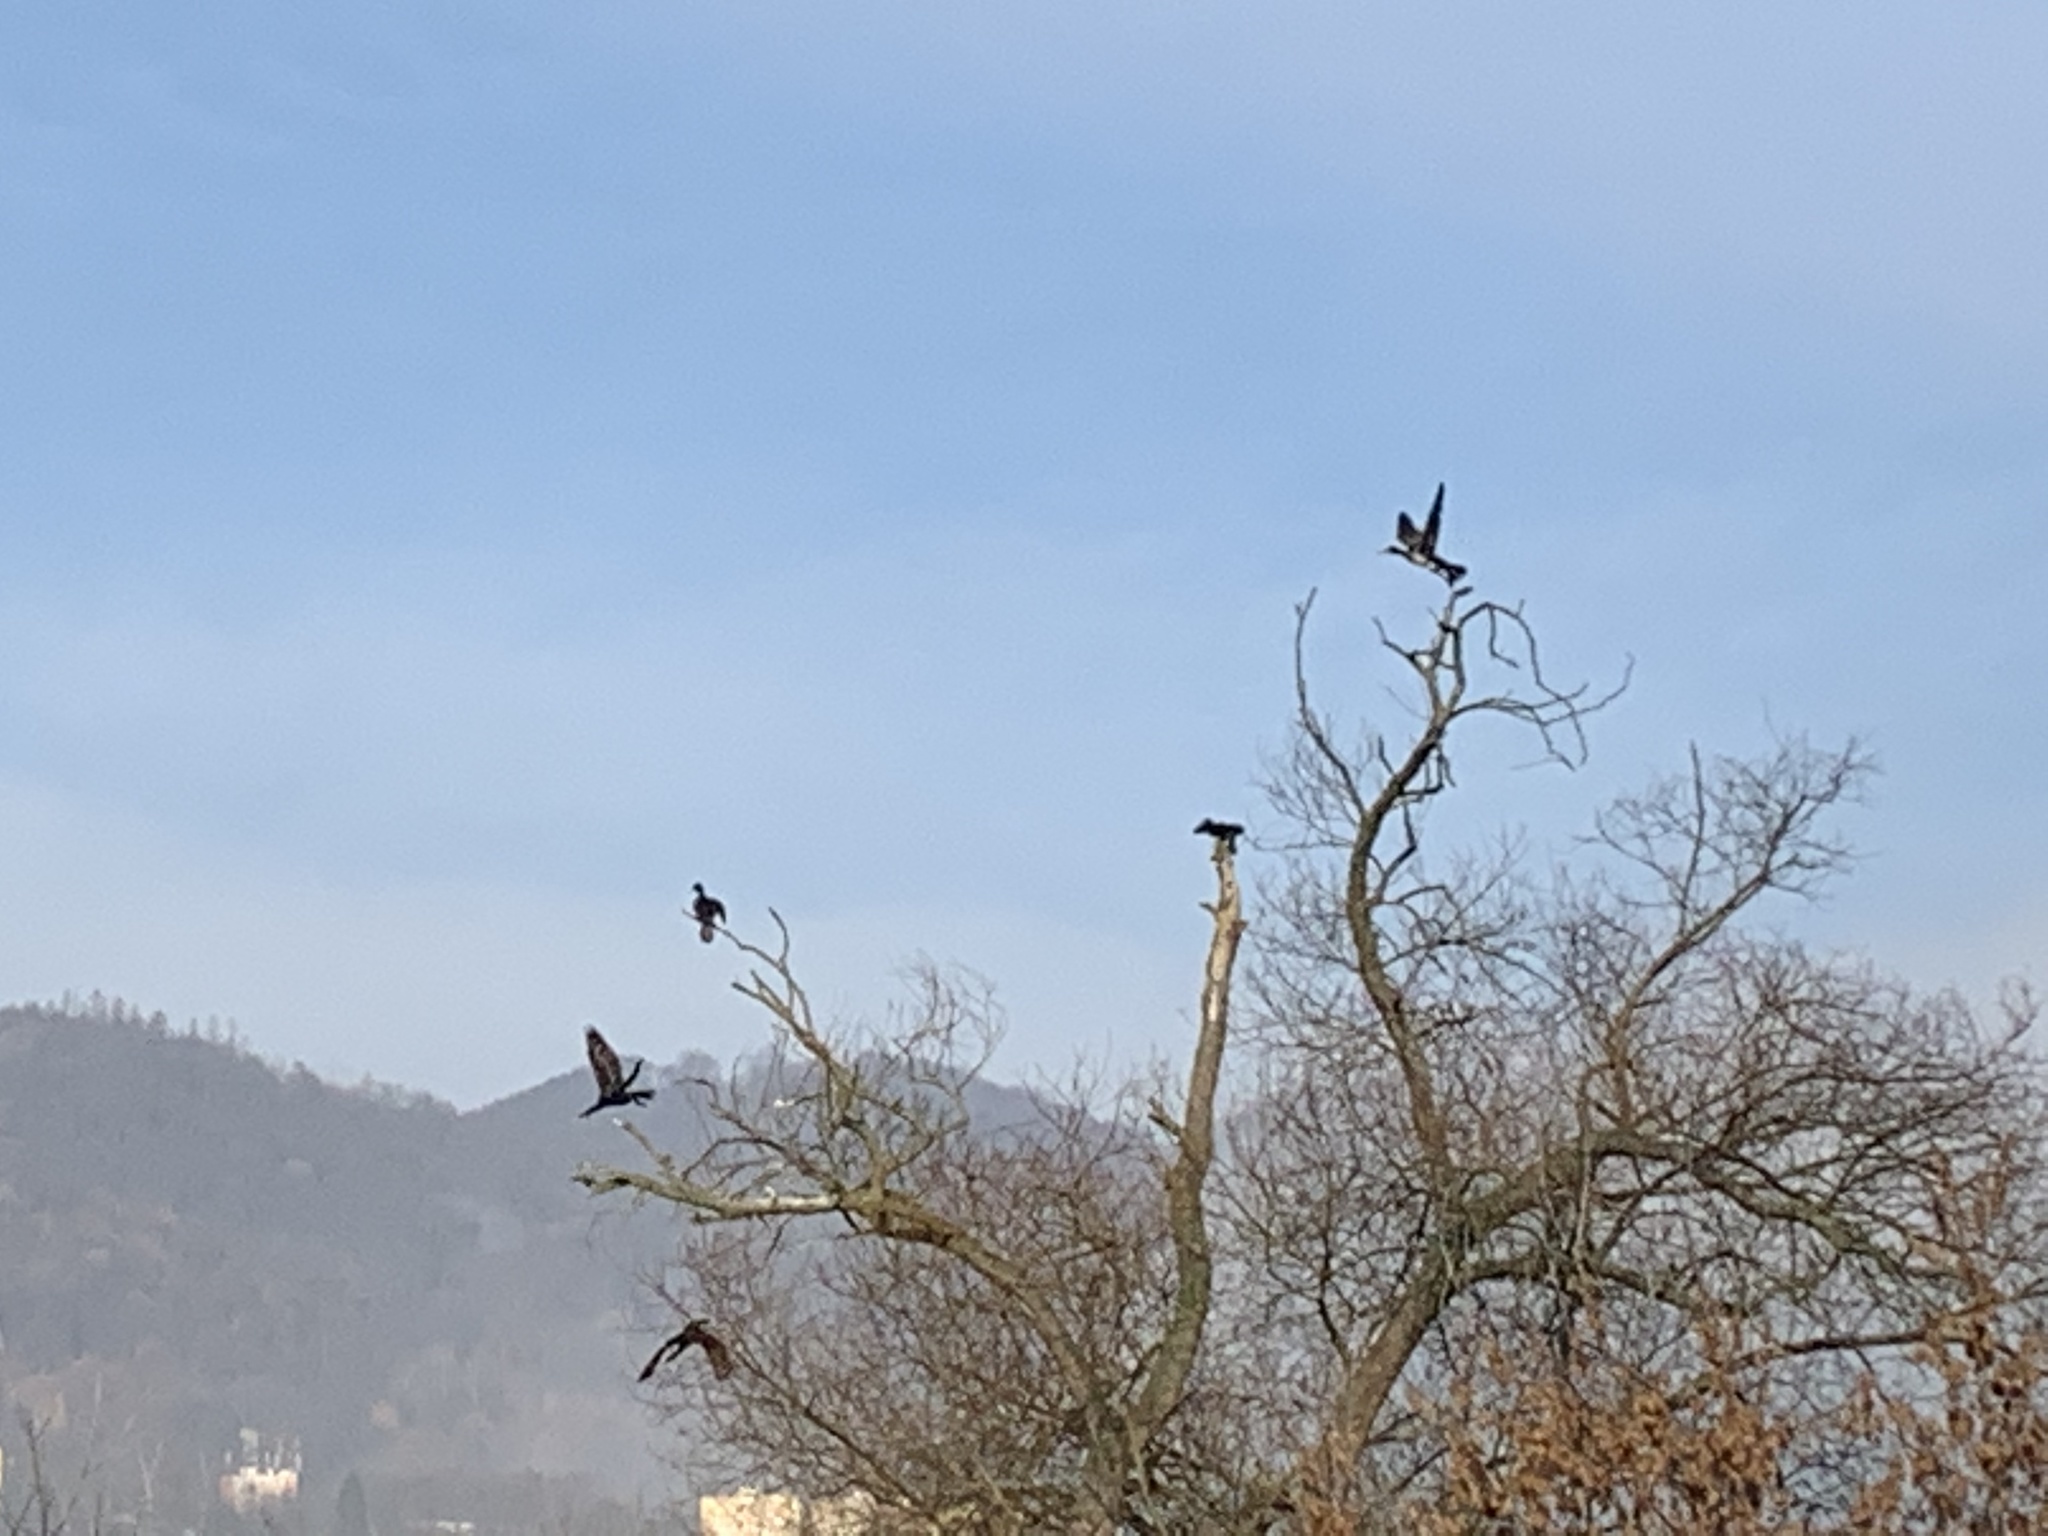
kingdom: Animalia
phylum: Chordata
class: Aves
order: Suliformes
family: Phalacrocoracidae
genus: Phalacrocorax
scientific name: Phalacrocorax carbo
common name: Great cormorant
